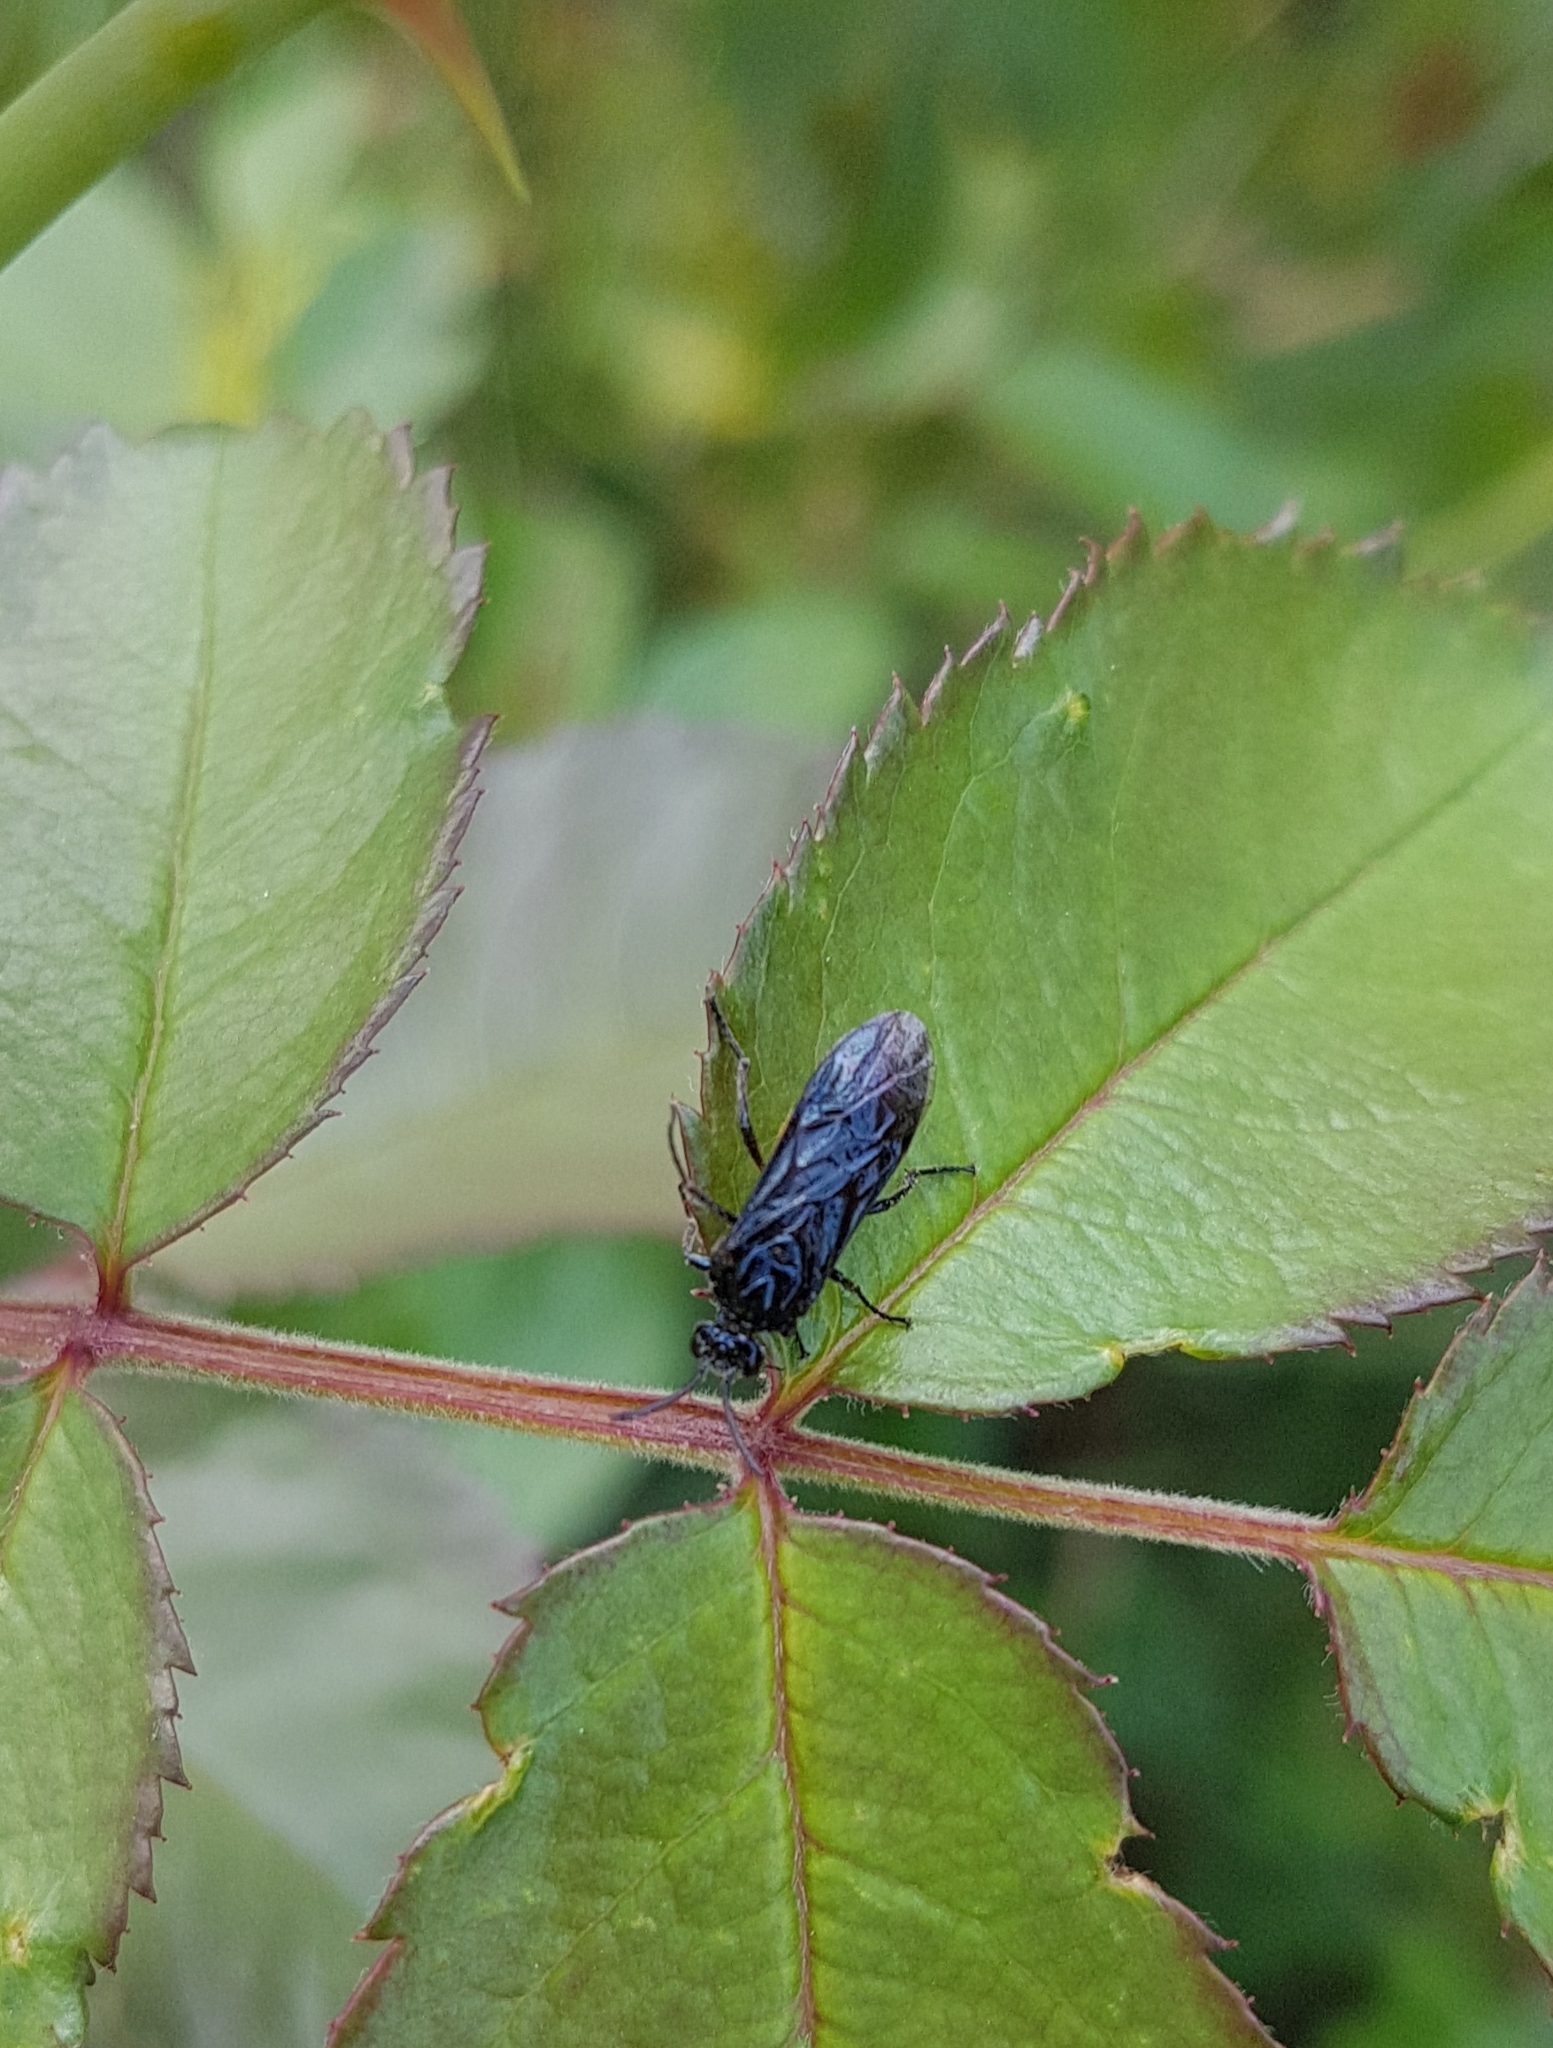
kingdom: Animalia
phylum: Arthropoda
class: Insecta
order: Hymenoptera
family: Argidae
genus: Arge
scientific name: Arge pagana
